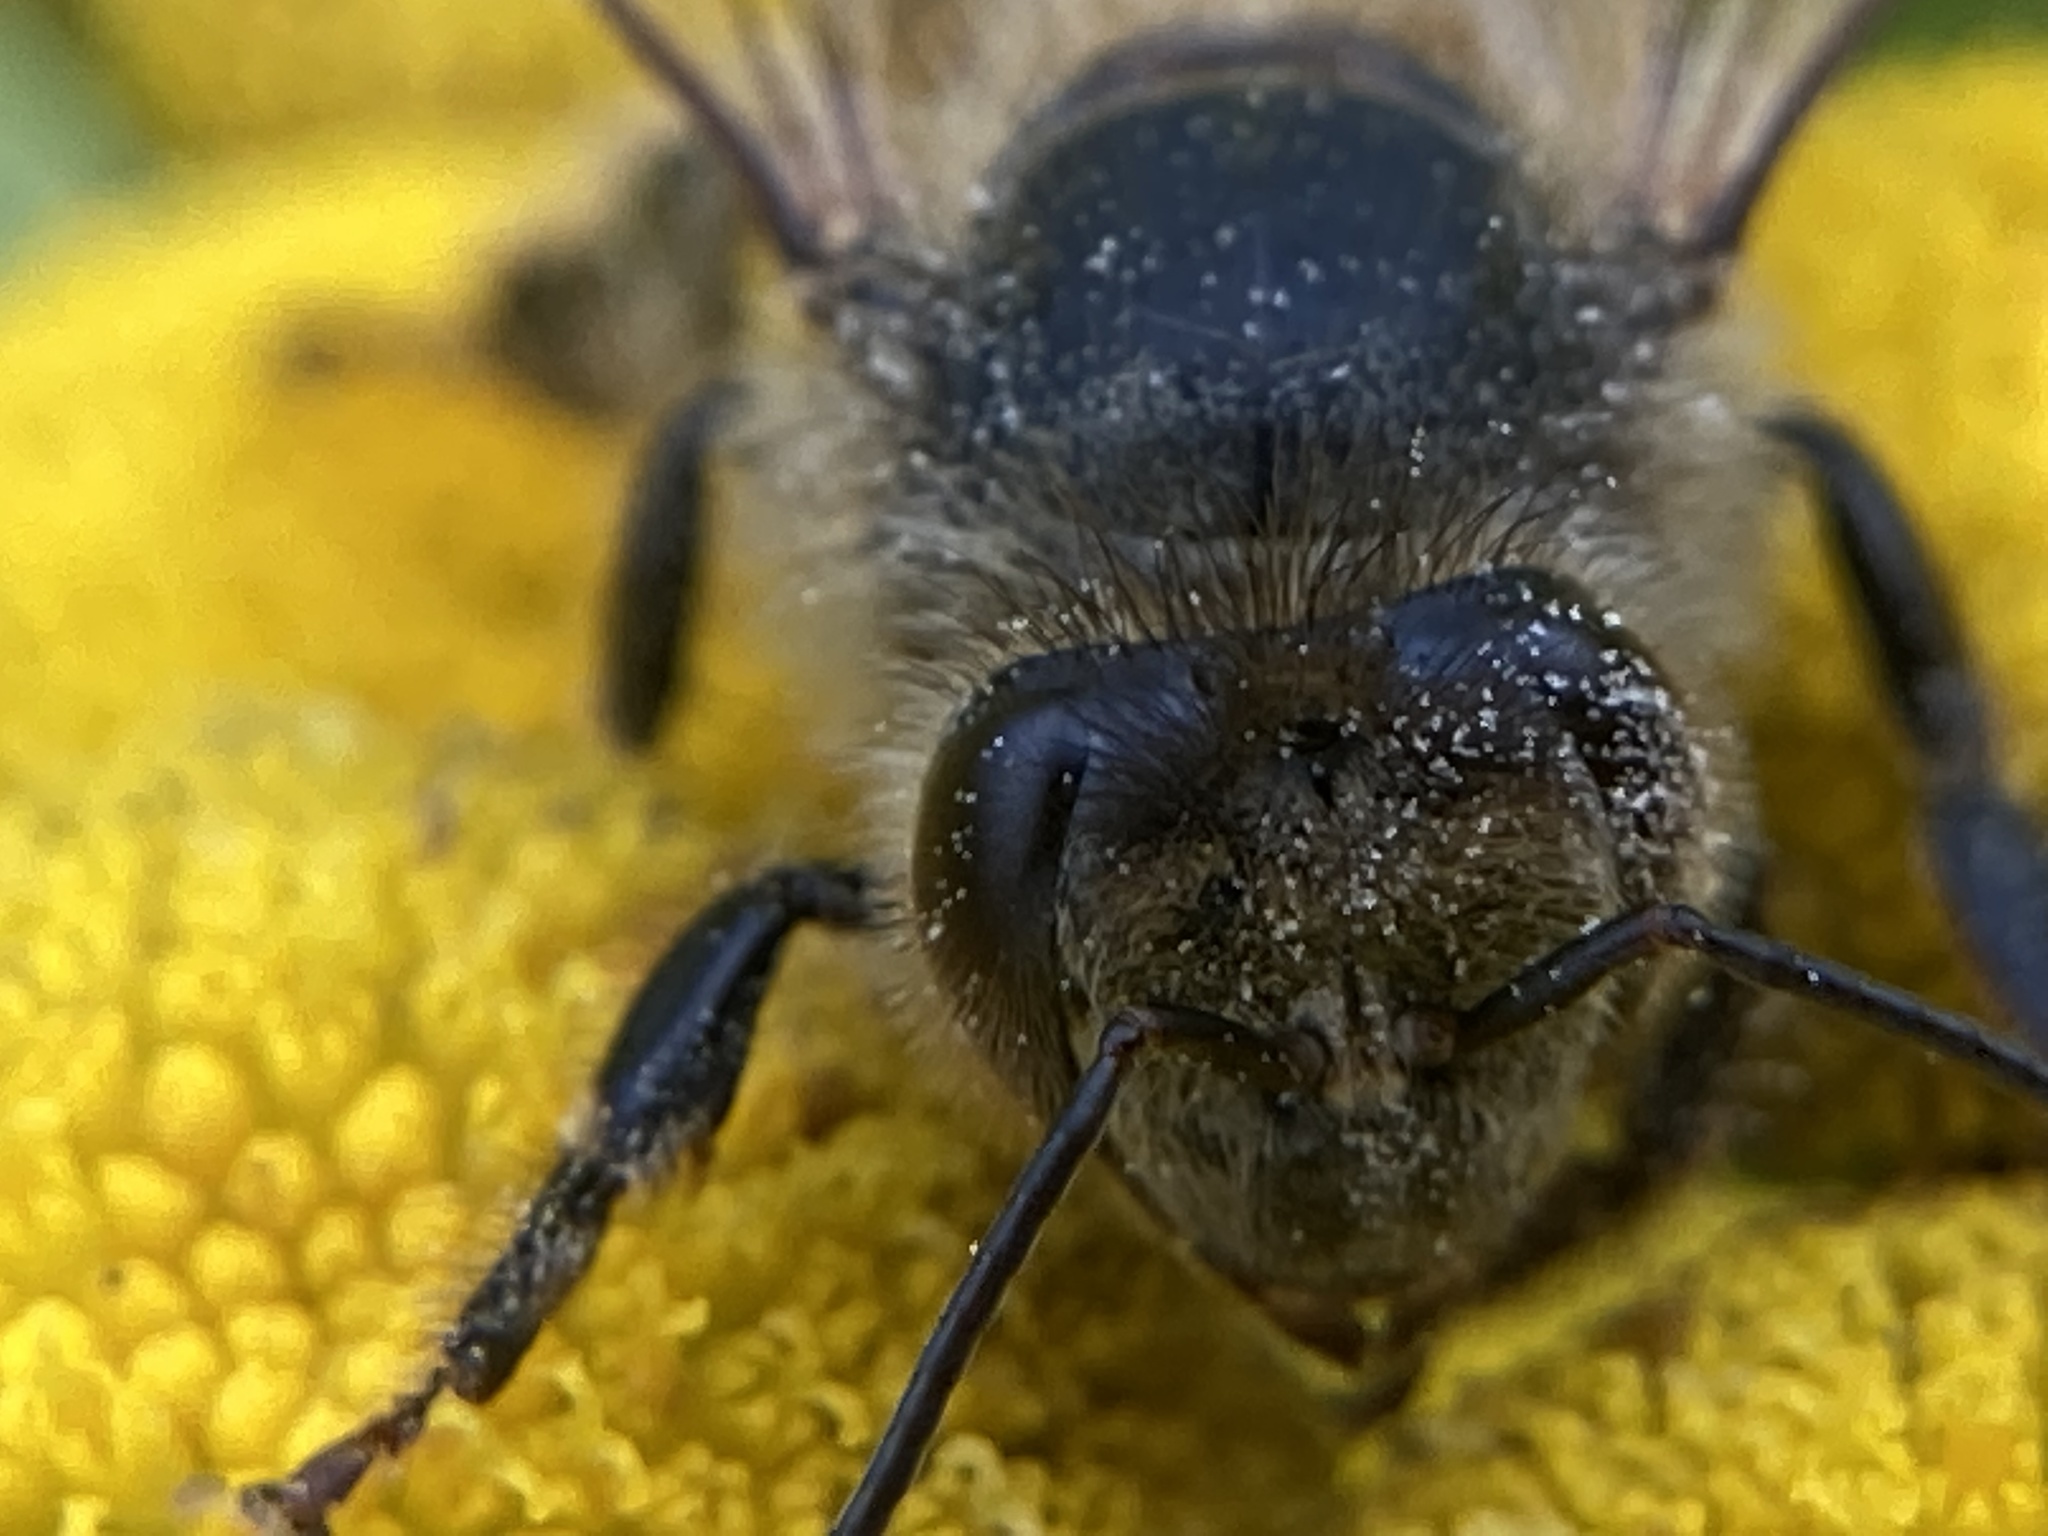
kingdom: Animalia
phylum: Arthropoda
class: Insecta
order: Hymenoptera
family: Apidae
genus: Apis
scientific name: Apis mellifera
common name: Honey bee
